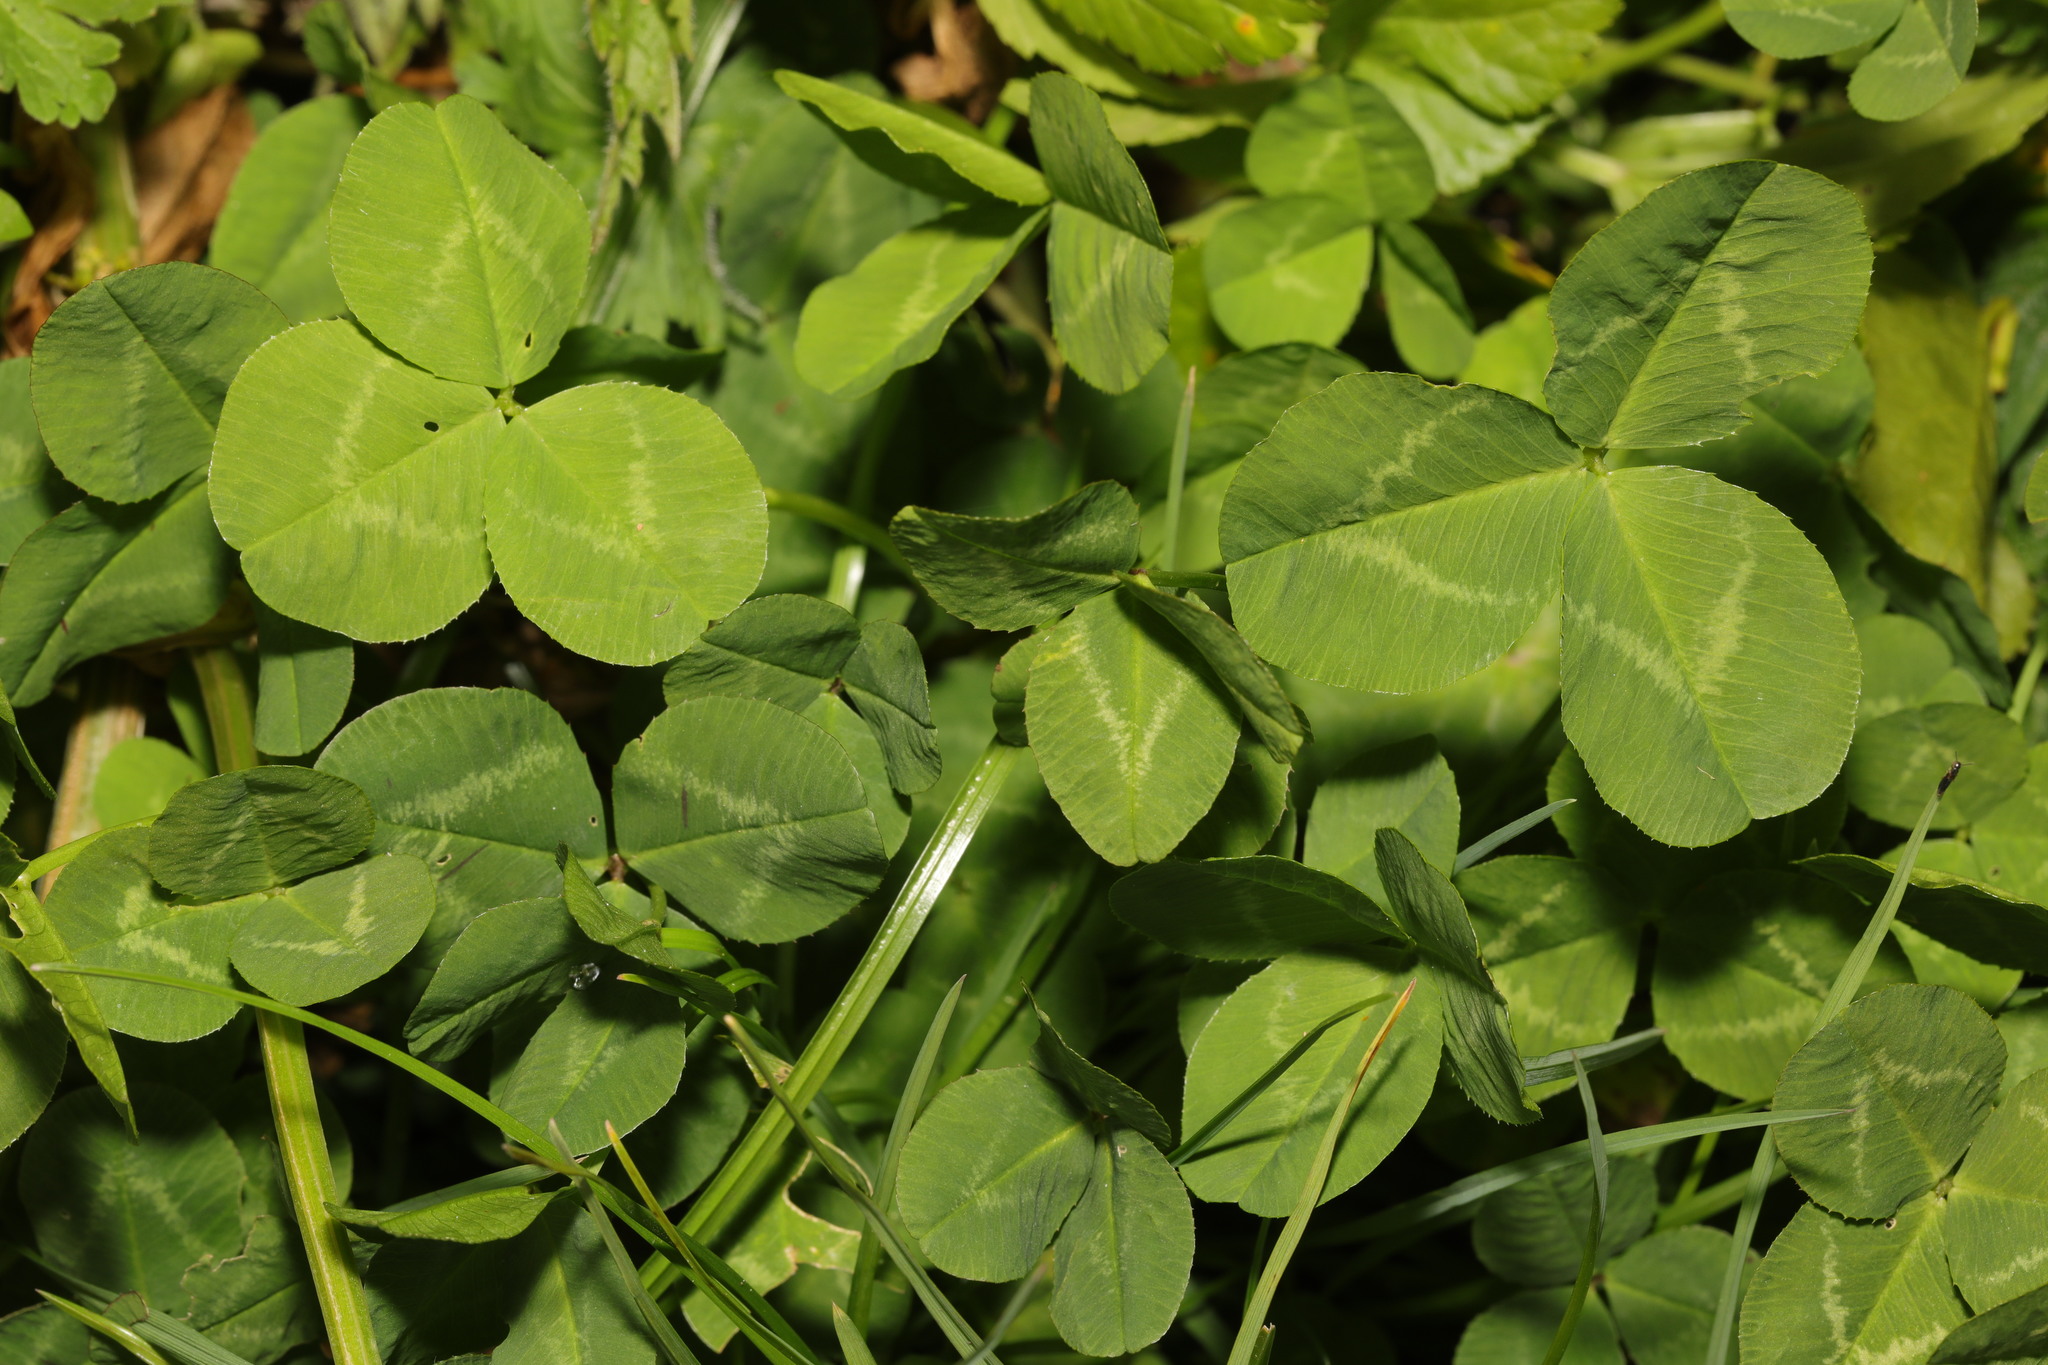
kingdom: Plantae
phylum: Tracheophyta
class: Magnoliopsida
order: Fabales
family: Fabaceae
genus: Trifolium
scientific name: Trifolium repens
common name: White clover
